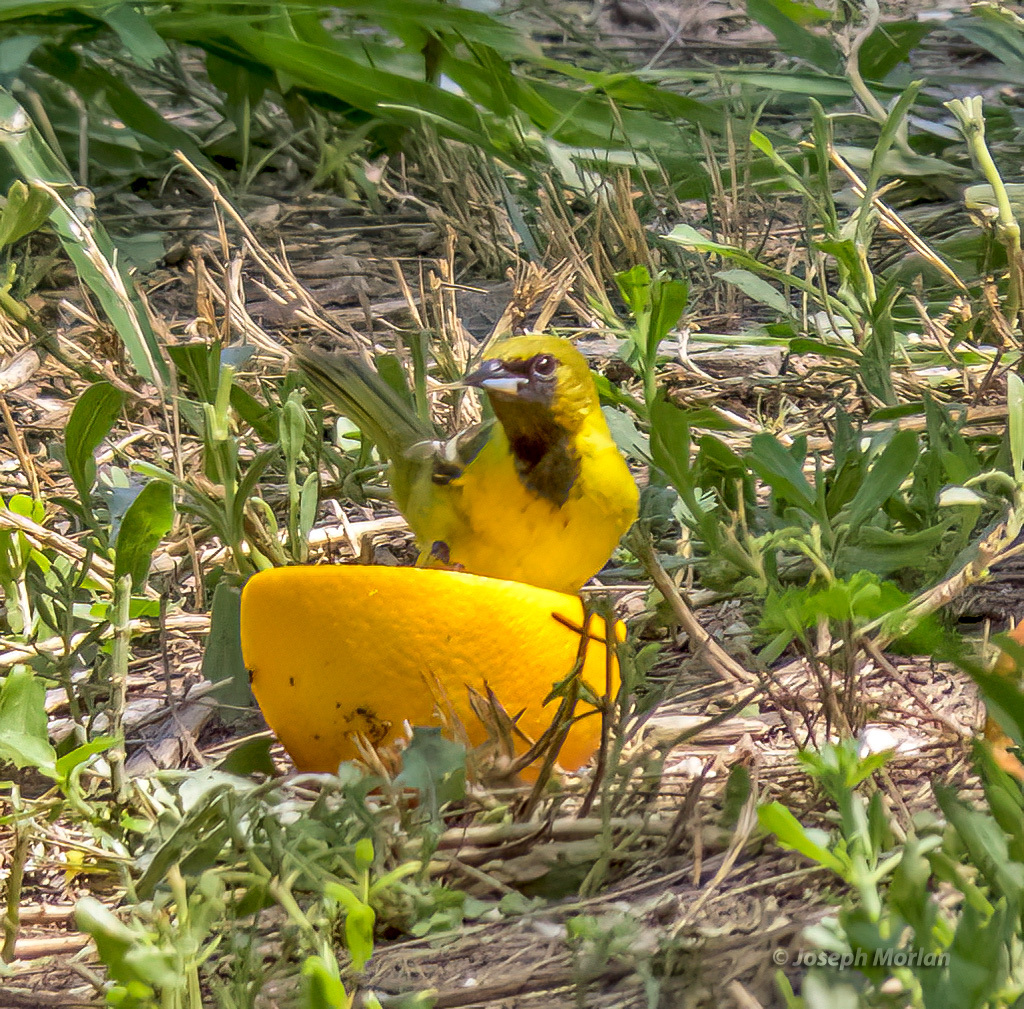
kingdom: Animalia
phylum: Chordata
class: Aves
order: Passeriformes
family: Icteridae
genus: Icterus
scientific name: Icterus spurius
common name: Orchard oriole
